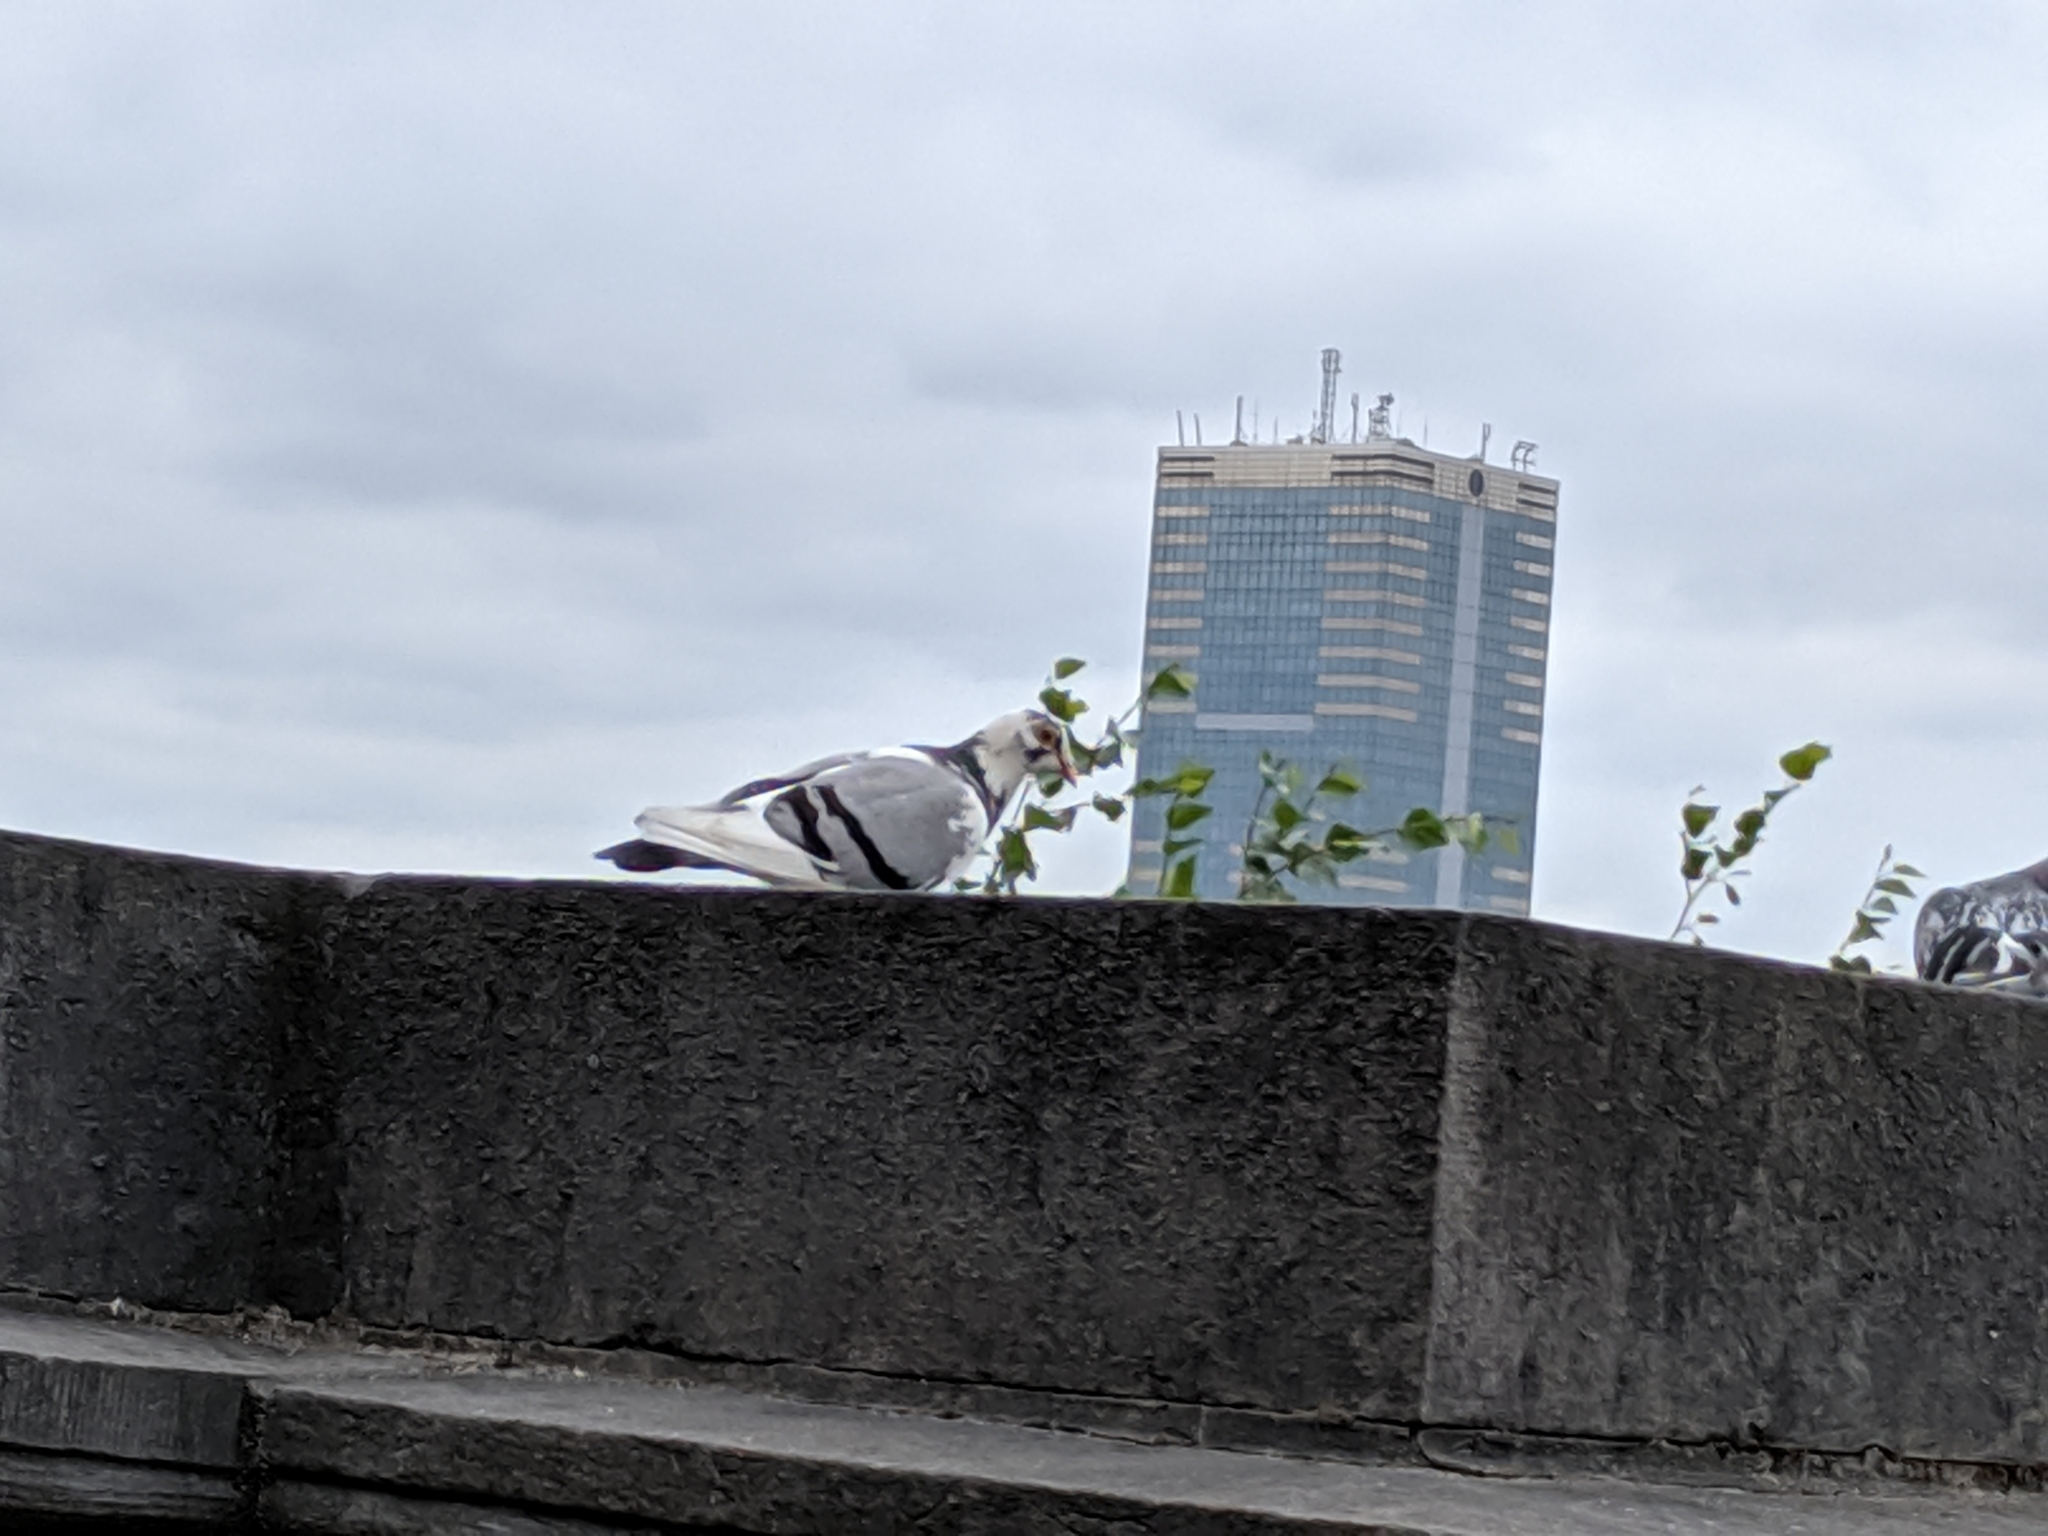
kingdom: Animalia
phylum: Chordata
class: Aves
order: Columbiformes
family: Columbidae
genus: Columba
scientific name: Columba livia
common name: Rock pigeon
